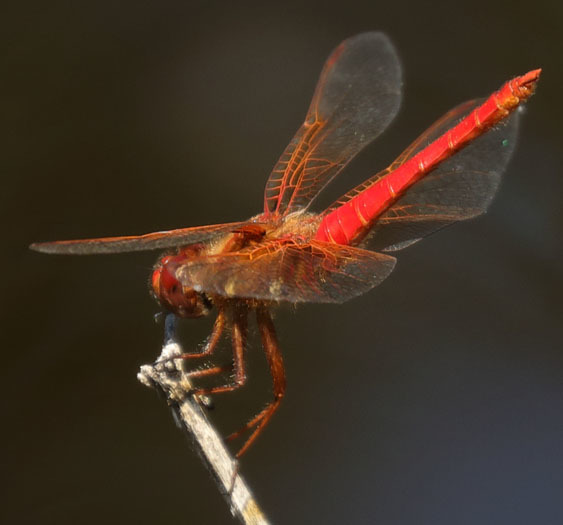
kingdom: Animalia
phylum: Arthropoda
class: Insecta
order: Odonata
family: Libellulidae
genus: Sympetrum
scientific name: Sympetrum illotum
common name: Cardinal meadowhawk
